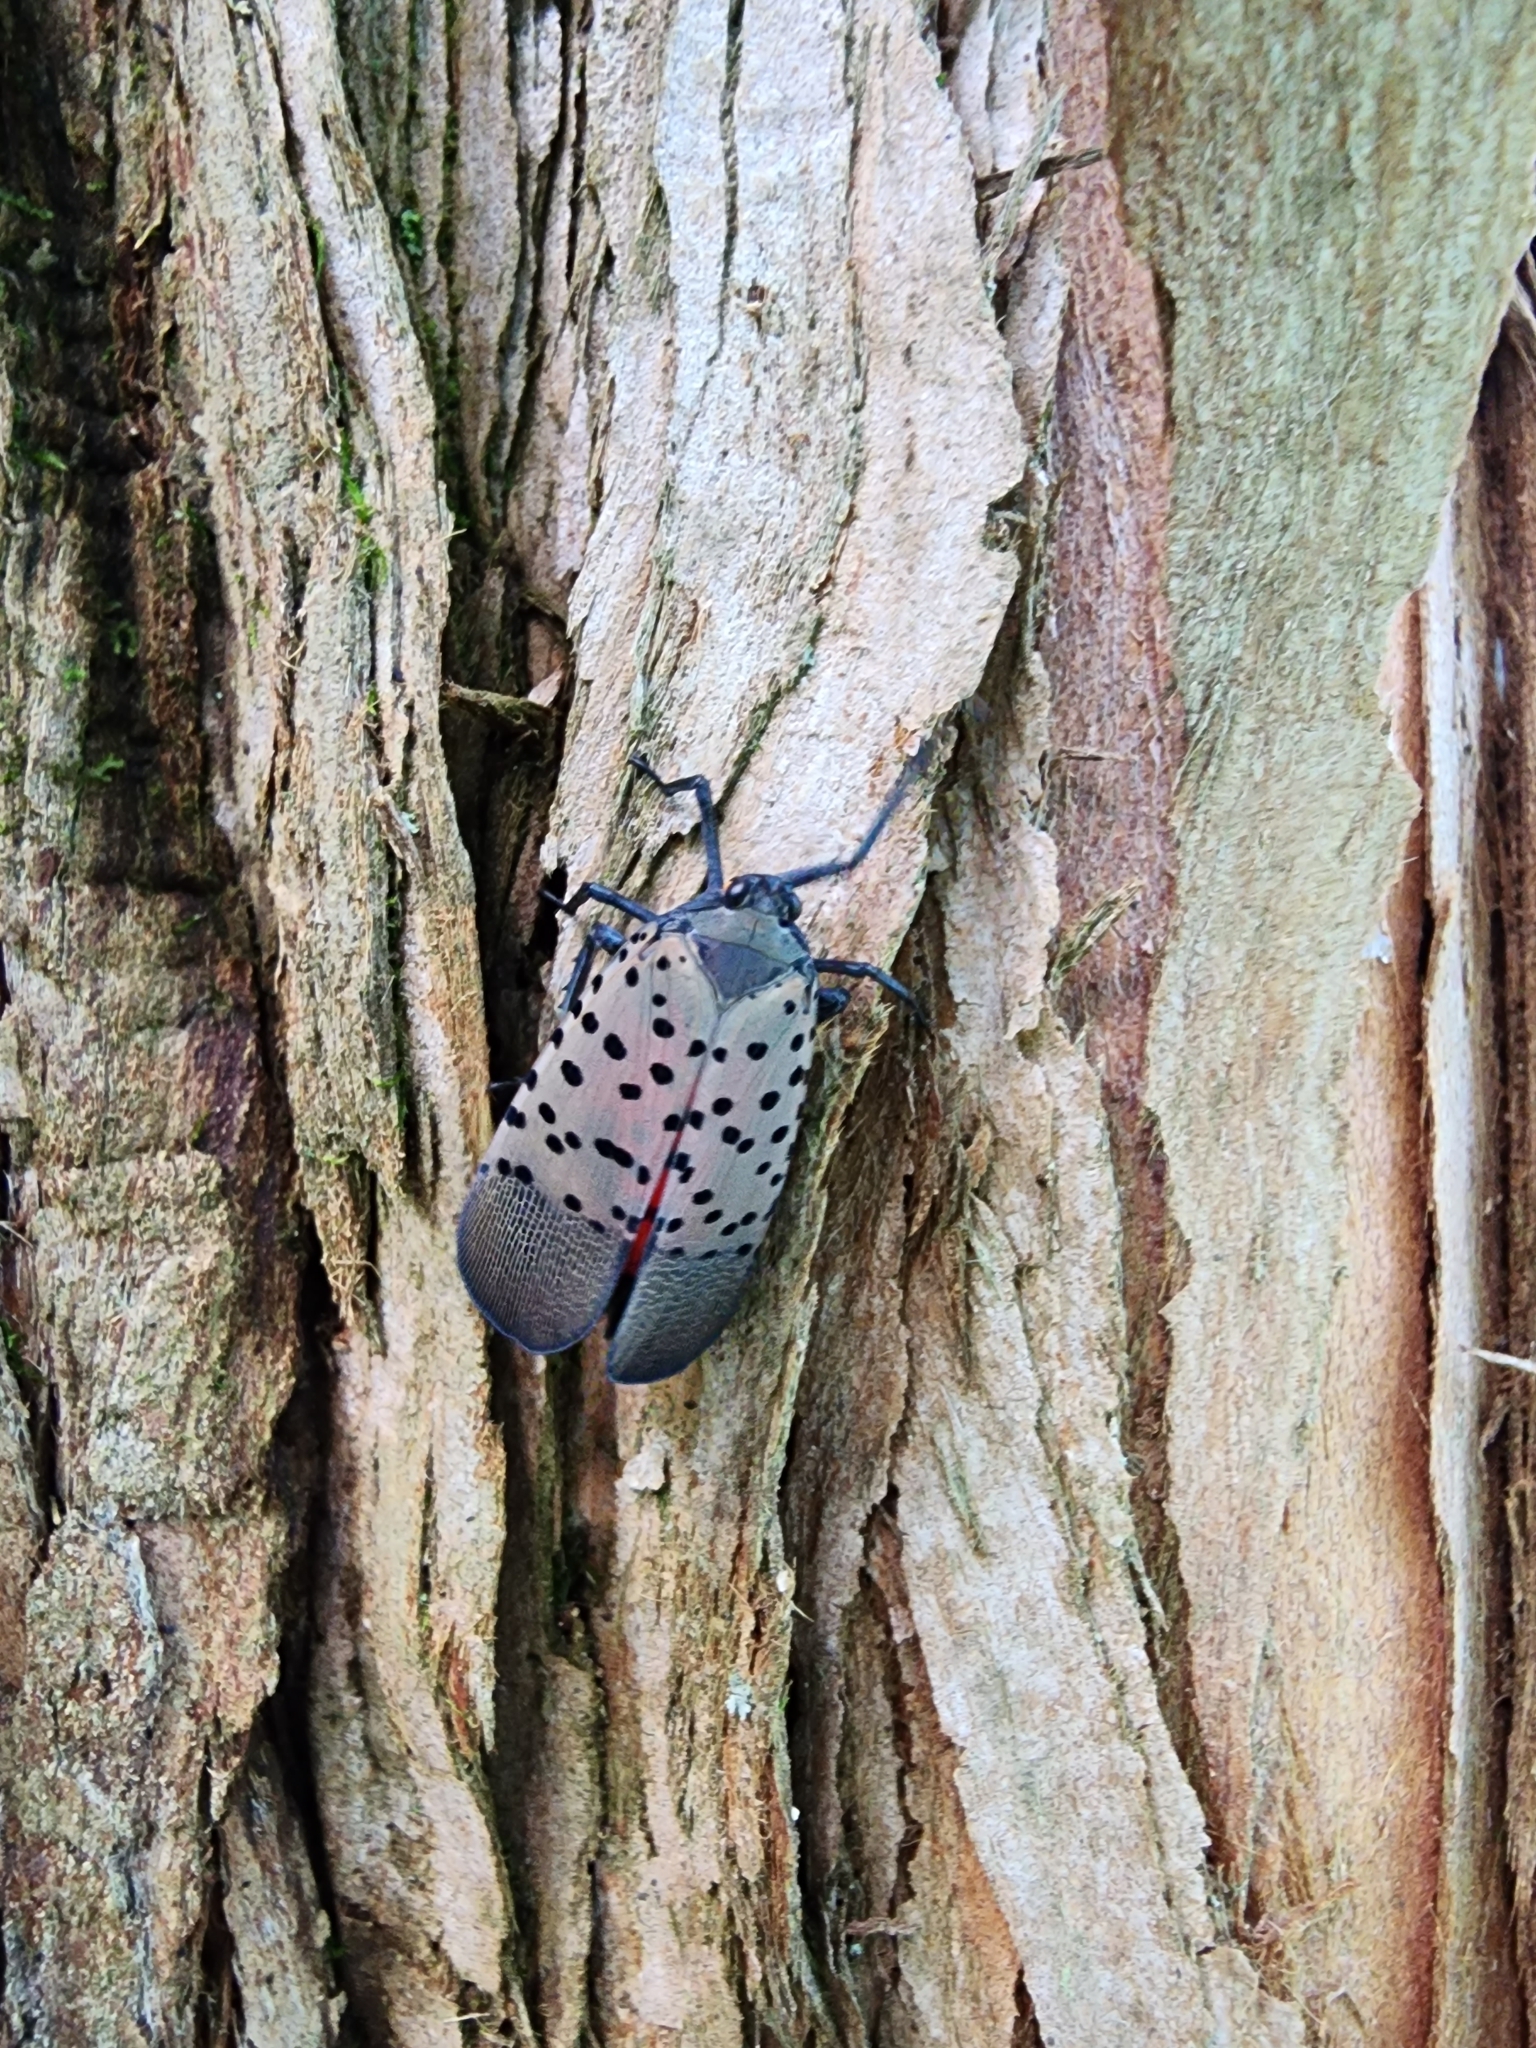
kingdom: Animalia
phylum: Arthropoda
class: Insecta
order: Hemiptera
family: Fulgoridae
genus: Lycorma
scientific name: Lycorma delicatula
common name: Spotted lanternfly
